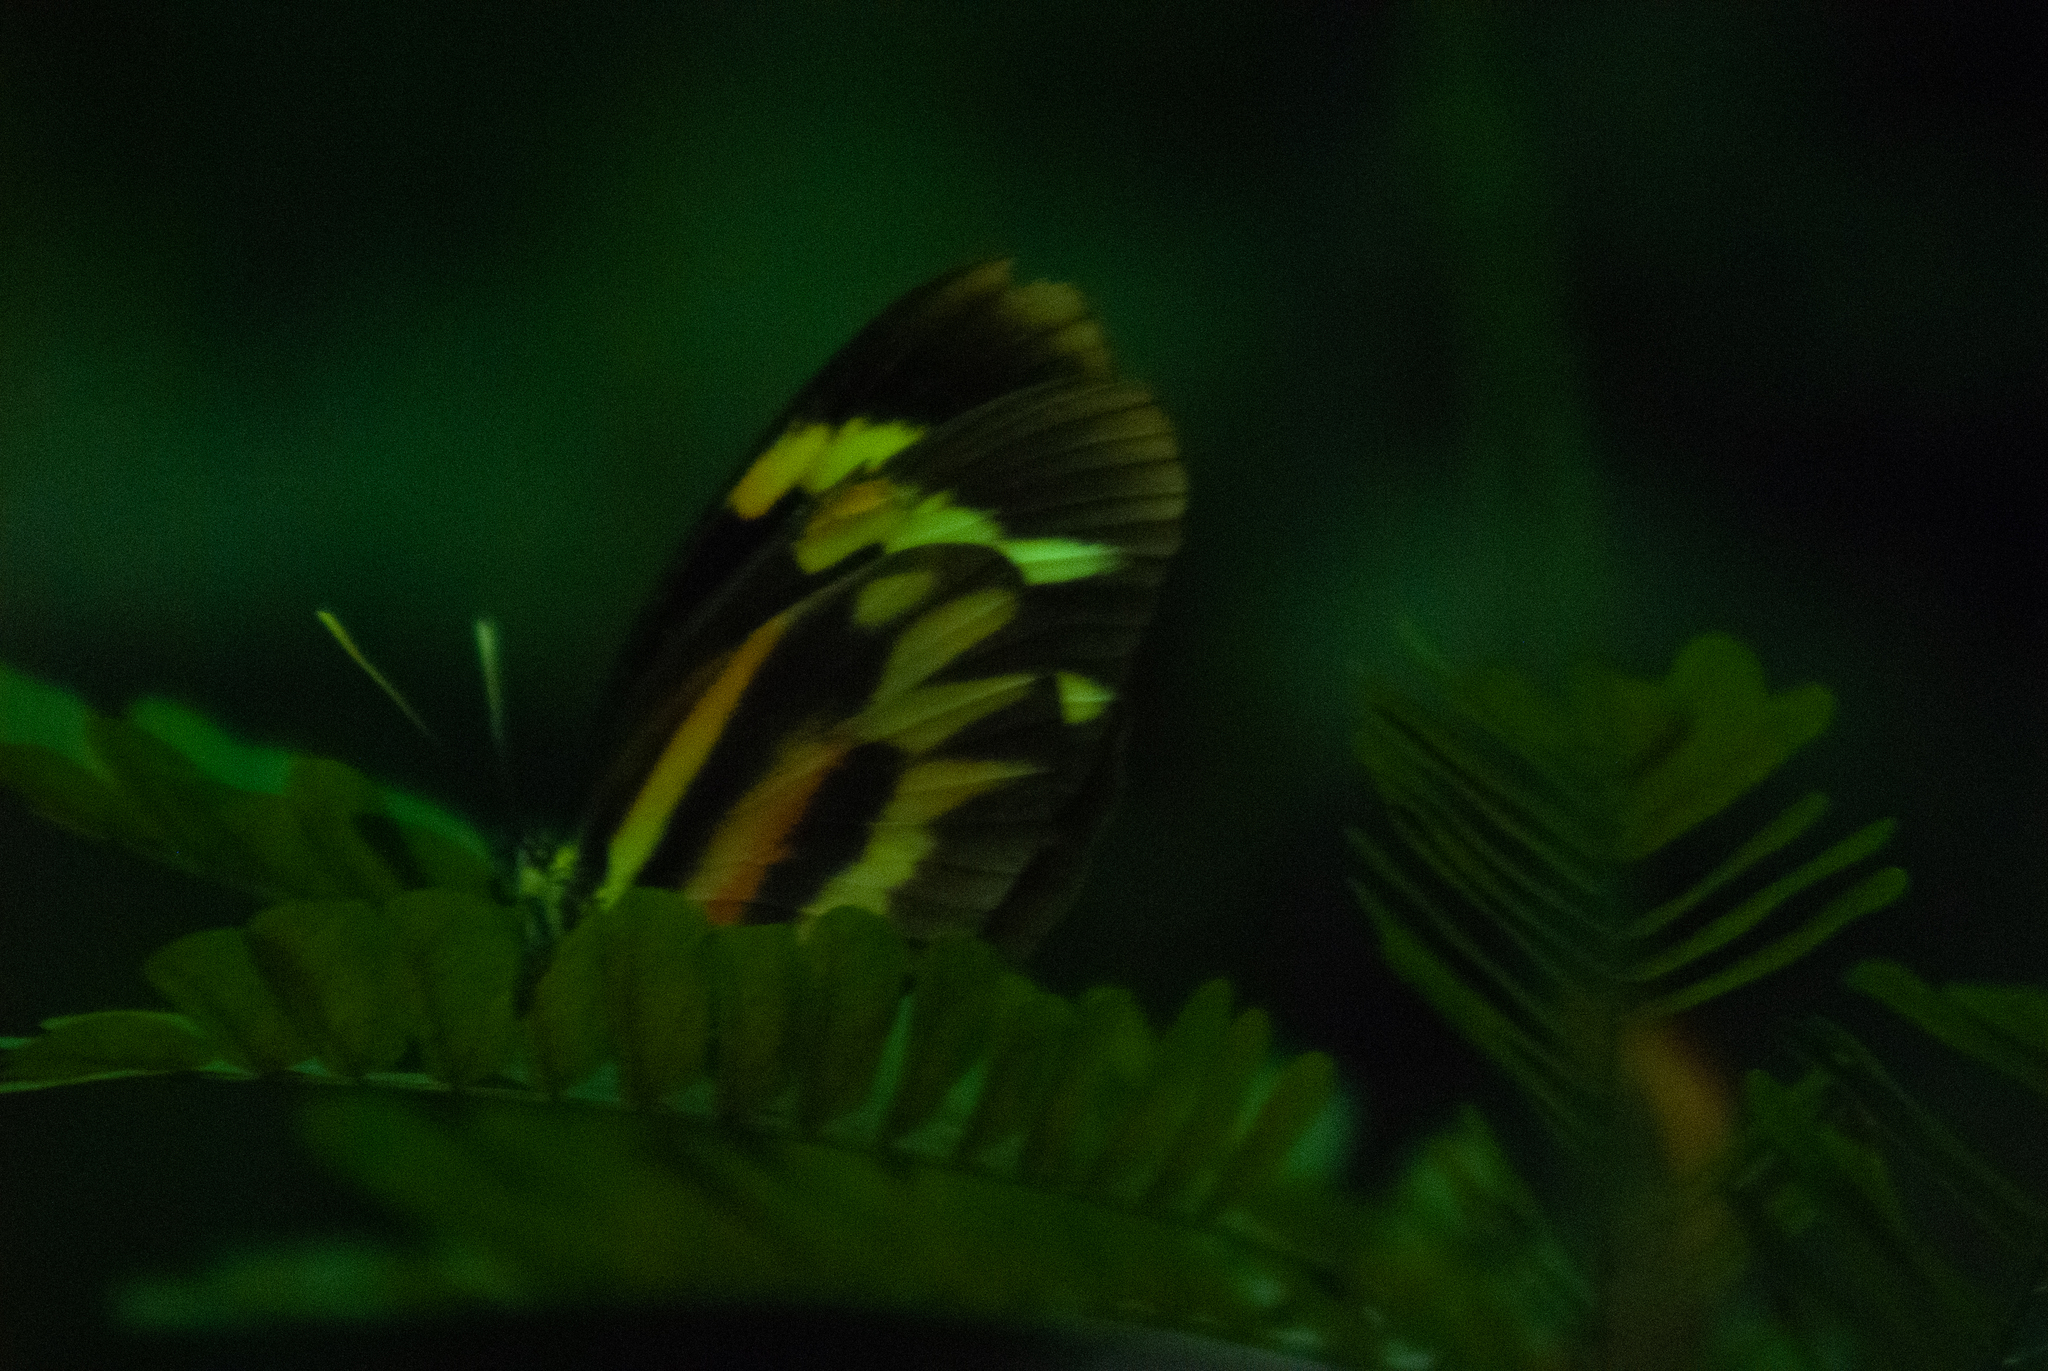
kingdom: Animalia
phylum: Arthropoda
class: Insecta
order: Lepidoptera
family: Pieridae
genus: Perrhybris
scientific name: Perrhybris pamela
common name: Chiapas white
